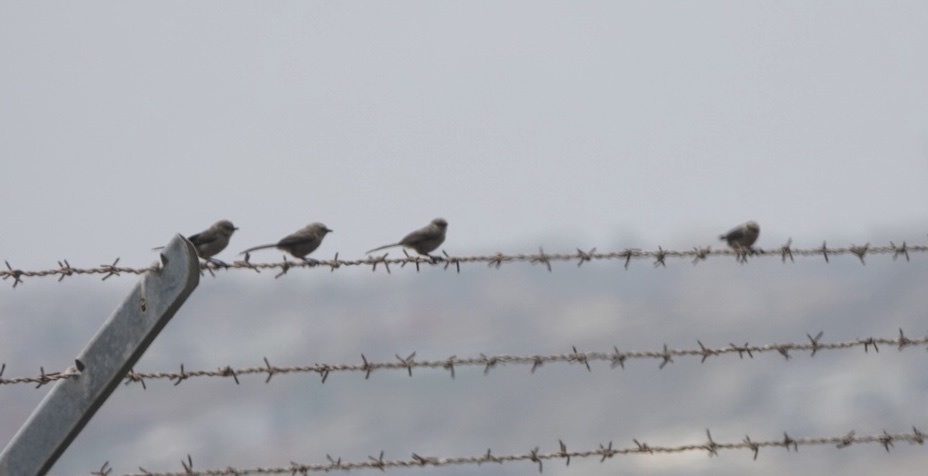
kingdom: Animalia
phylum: Chordata
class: Aves
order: Passeriformes
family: Aegithalidae
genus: Psaltriparus
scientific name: Psaltriparus minimus
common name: American bushtit
